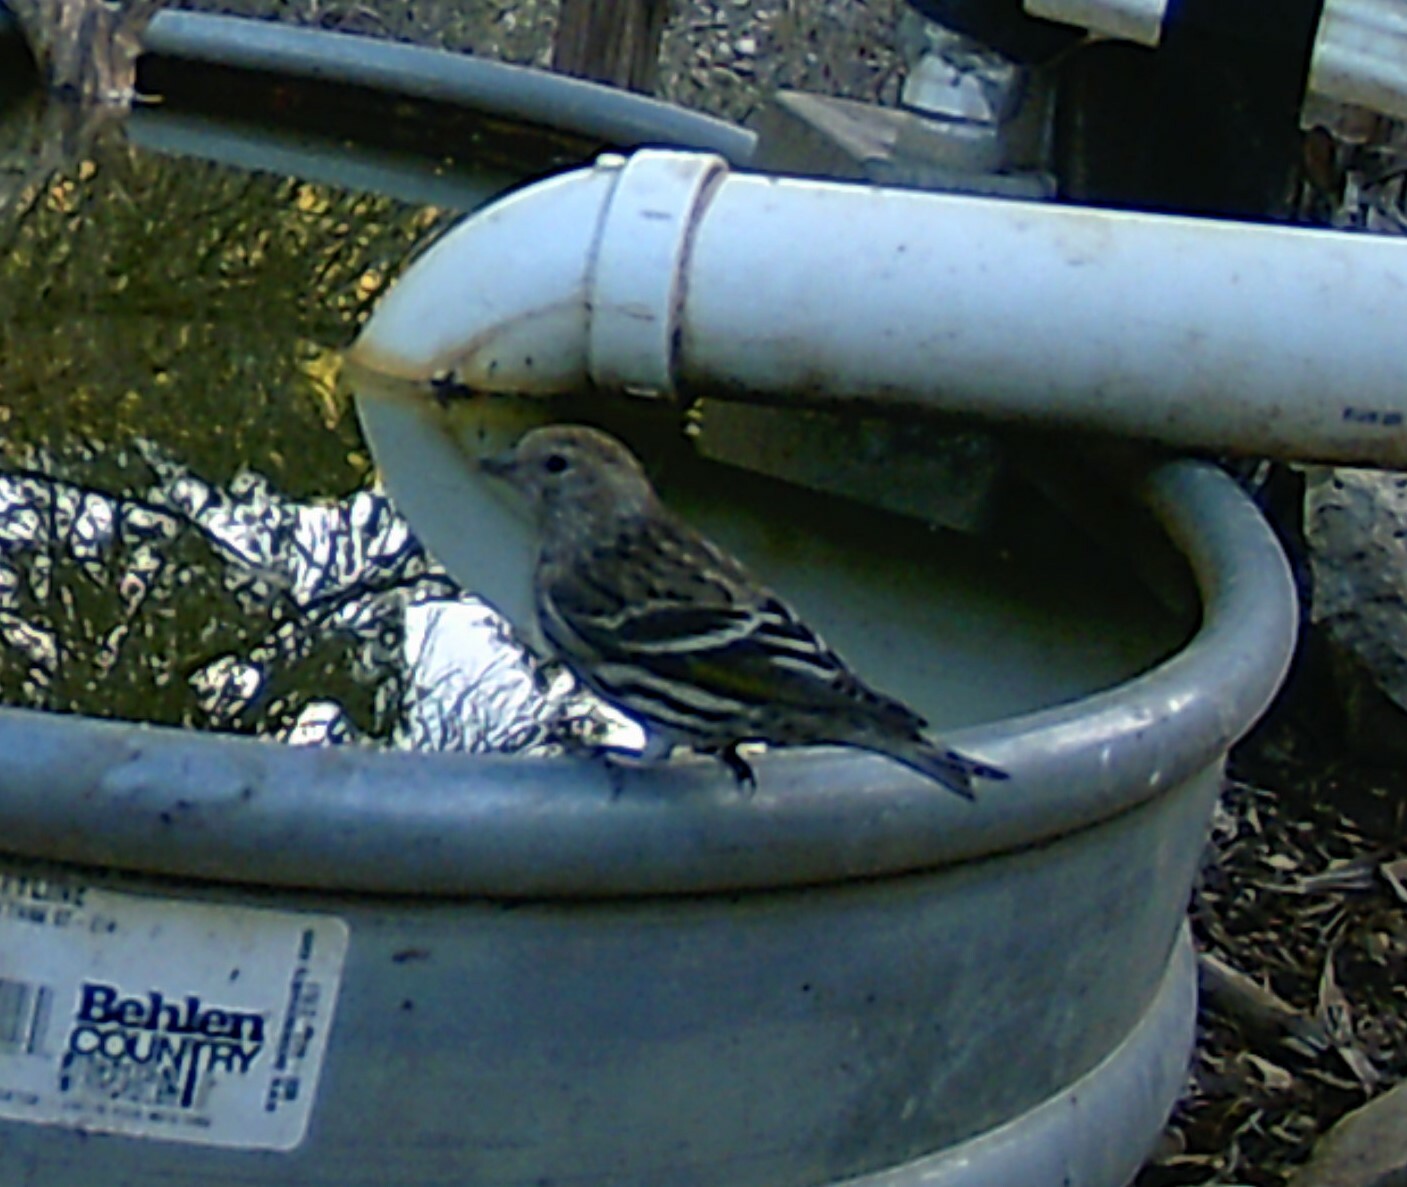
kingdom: Animalia
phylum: Chordata
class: Aves
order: Passeriformes
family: Fringillidae
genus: Spinus
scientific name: Spinus pinus
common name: Pine siskin
